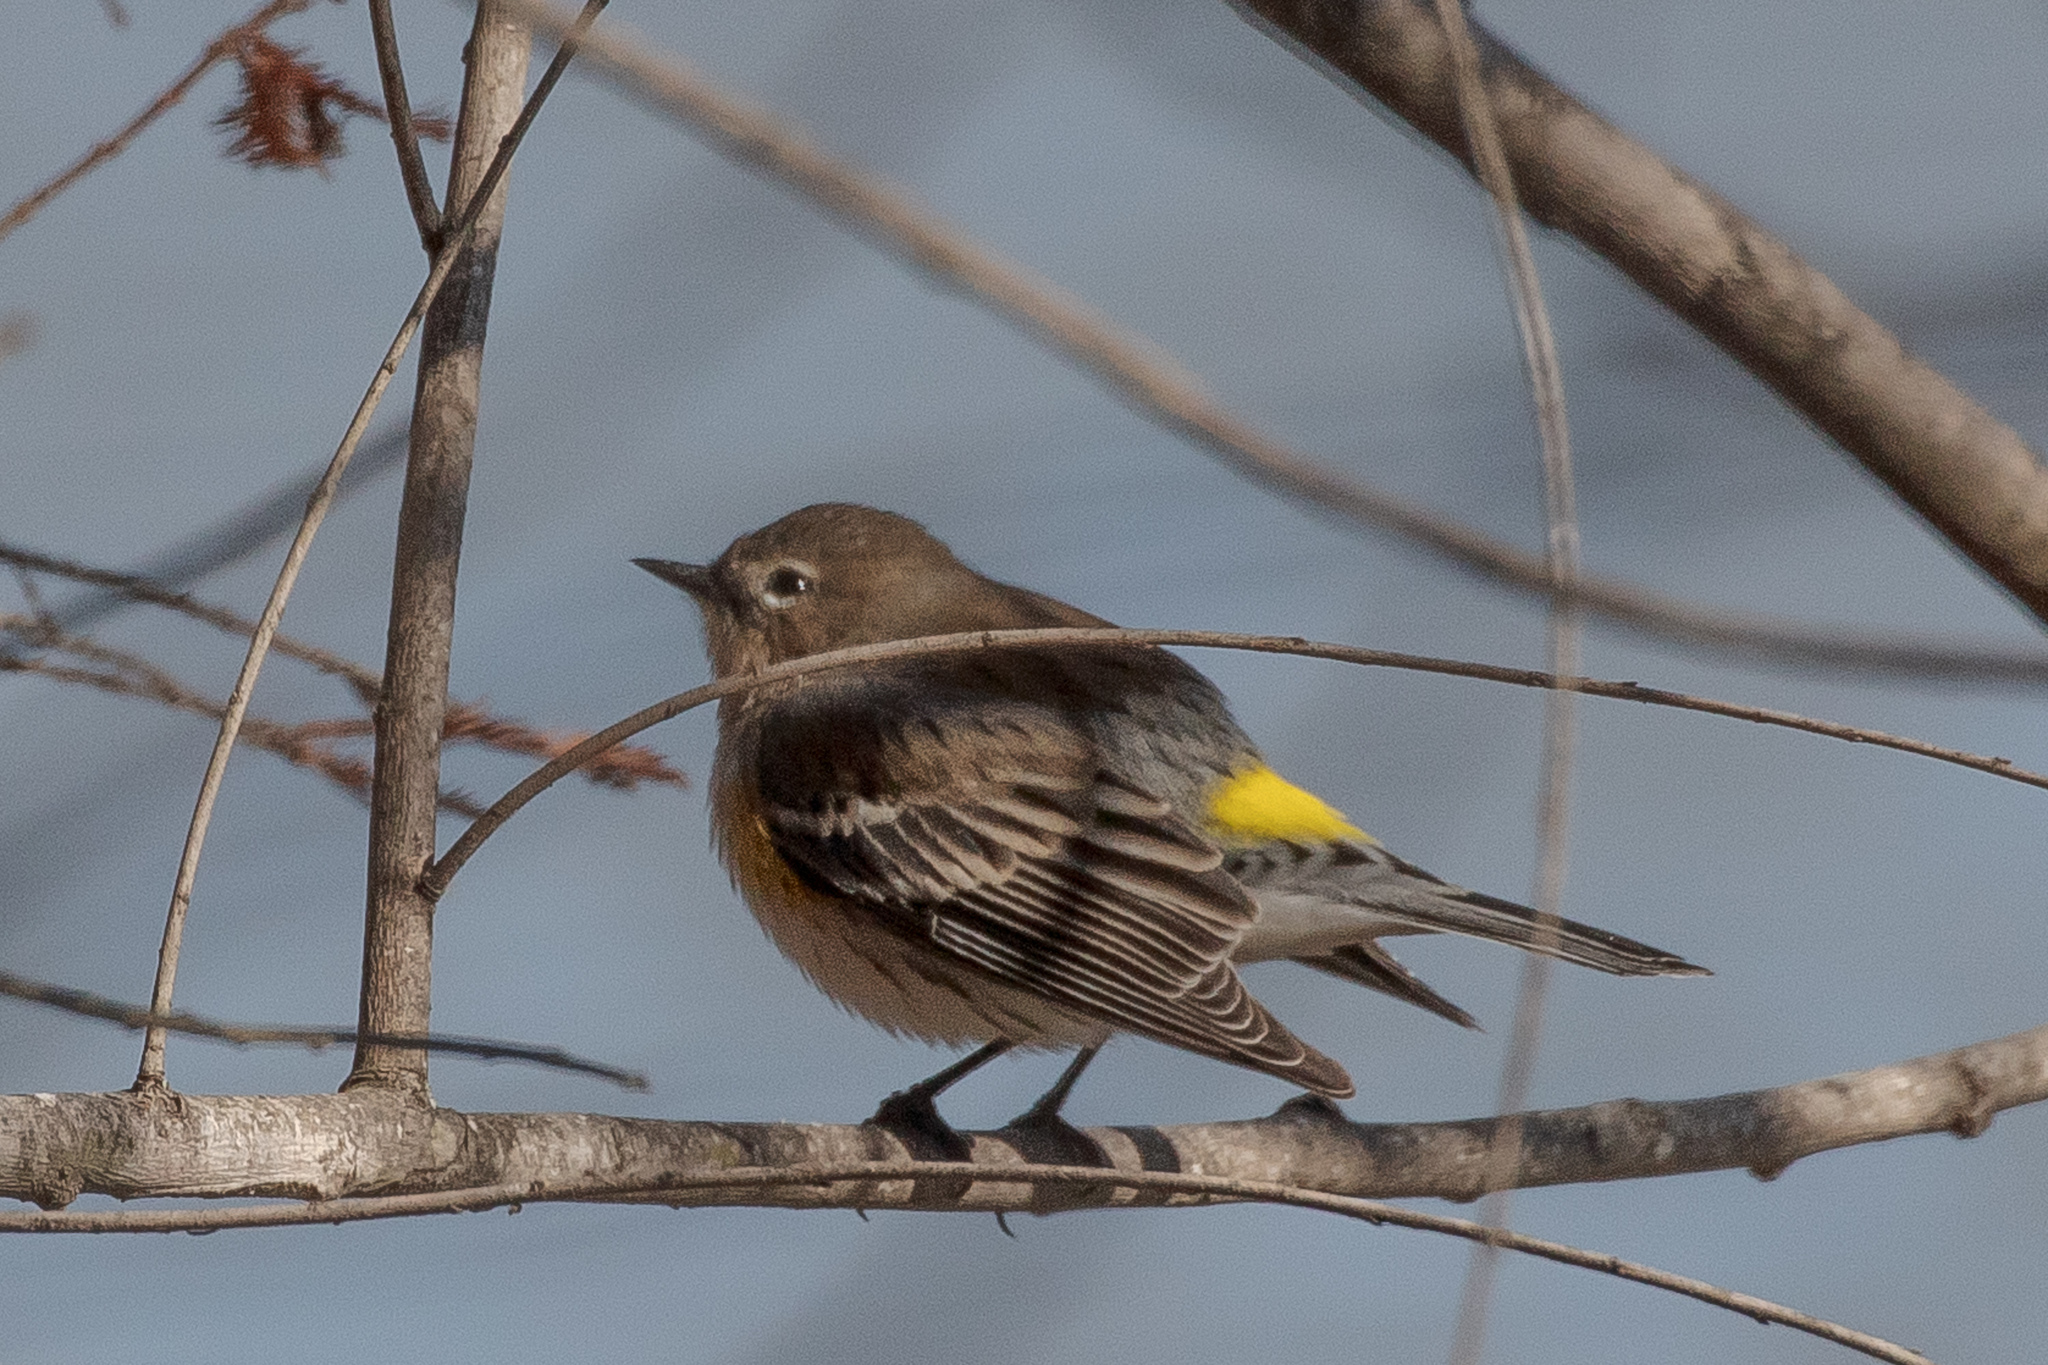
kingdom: Animalia
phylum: Chordata
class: Aves
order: Passeriformes
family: Parulidae
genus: Setophaga
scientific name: Setophaga coronata
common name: Myrtle warbler
